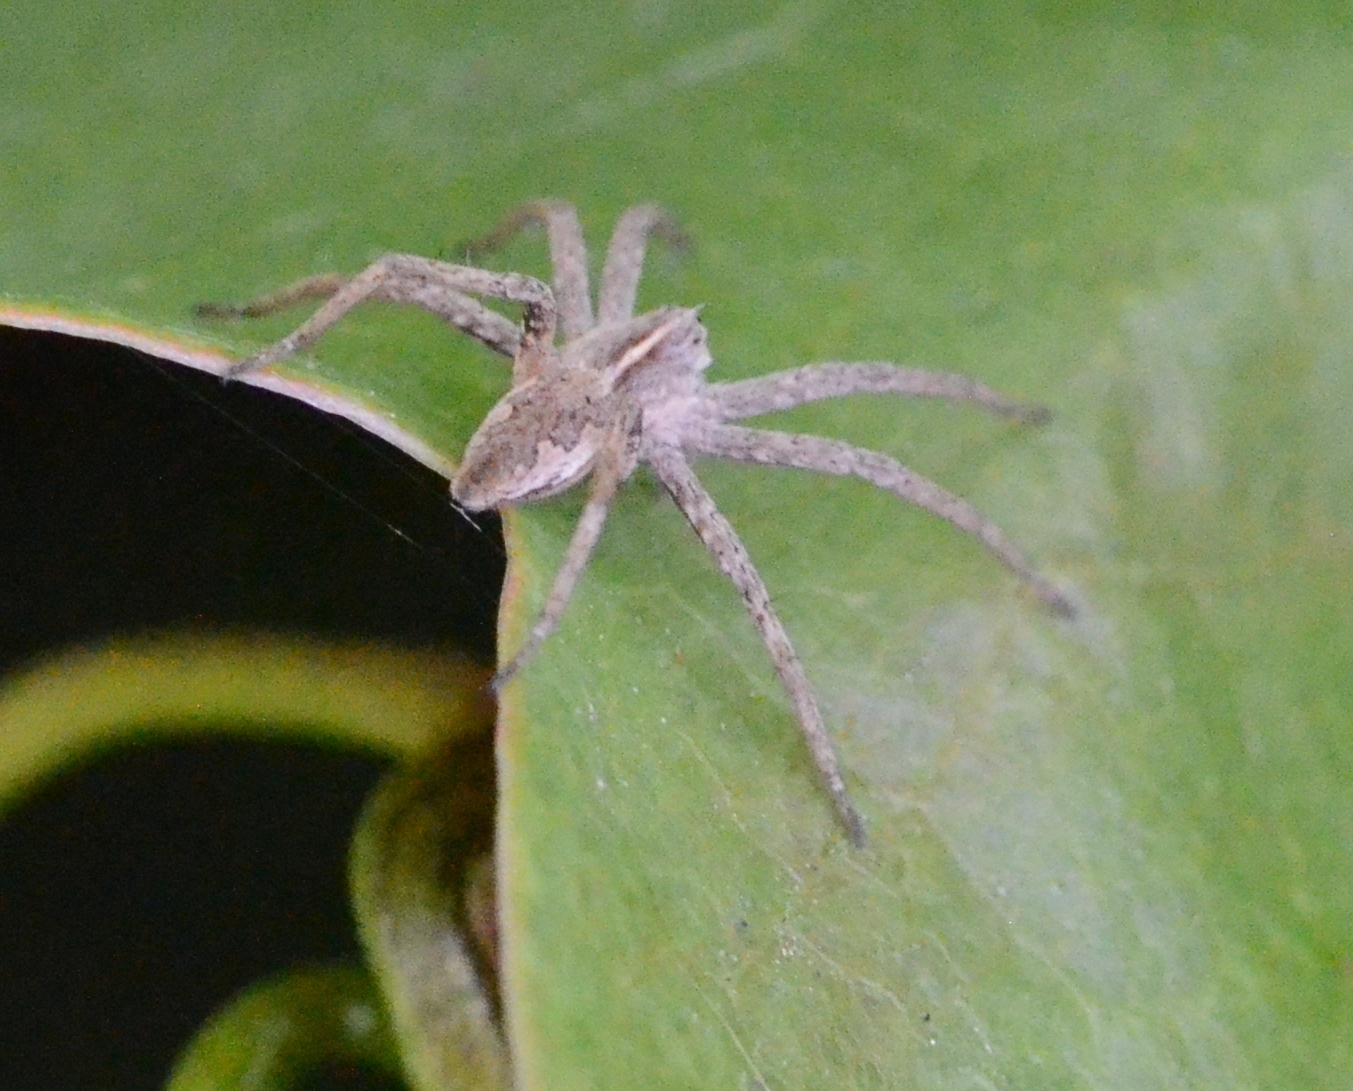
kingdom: Animalia
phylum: Arthropoda
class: Arachnida
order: Araneae
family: Pisauridae
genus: Pisaura
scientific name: Pisaura mirabilis
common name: Tent spider
